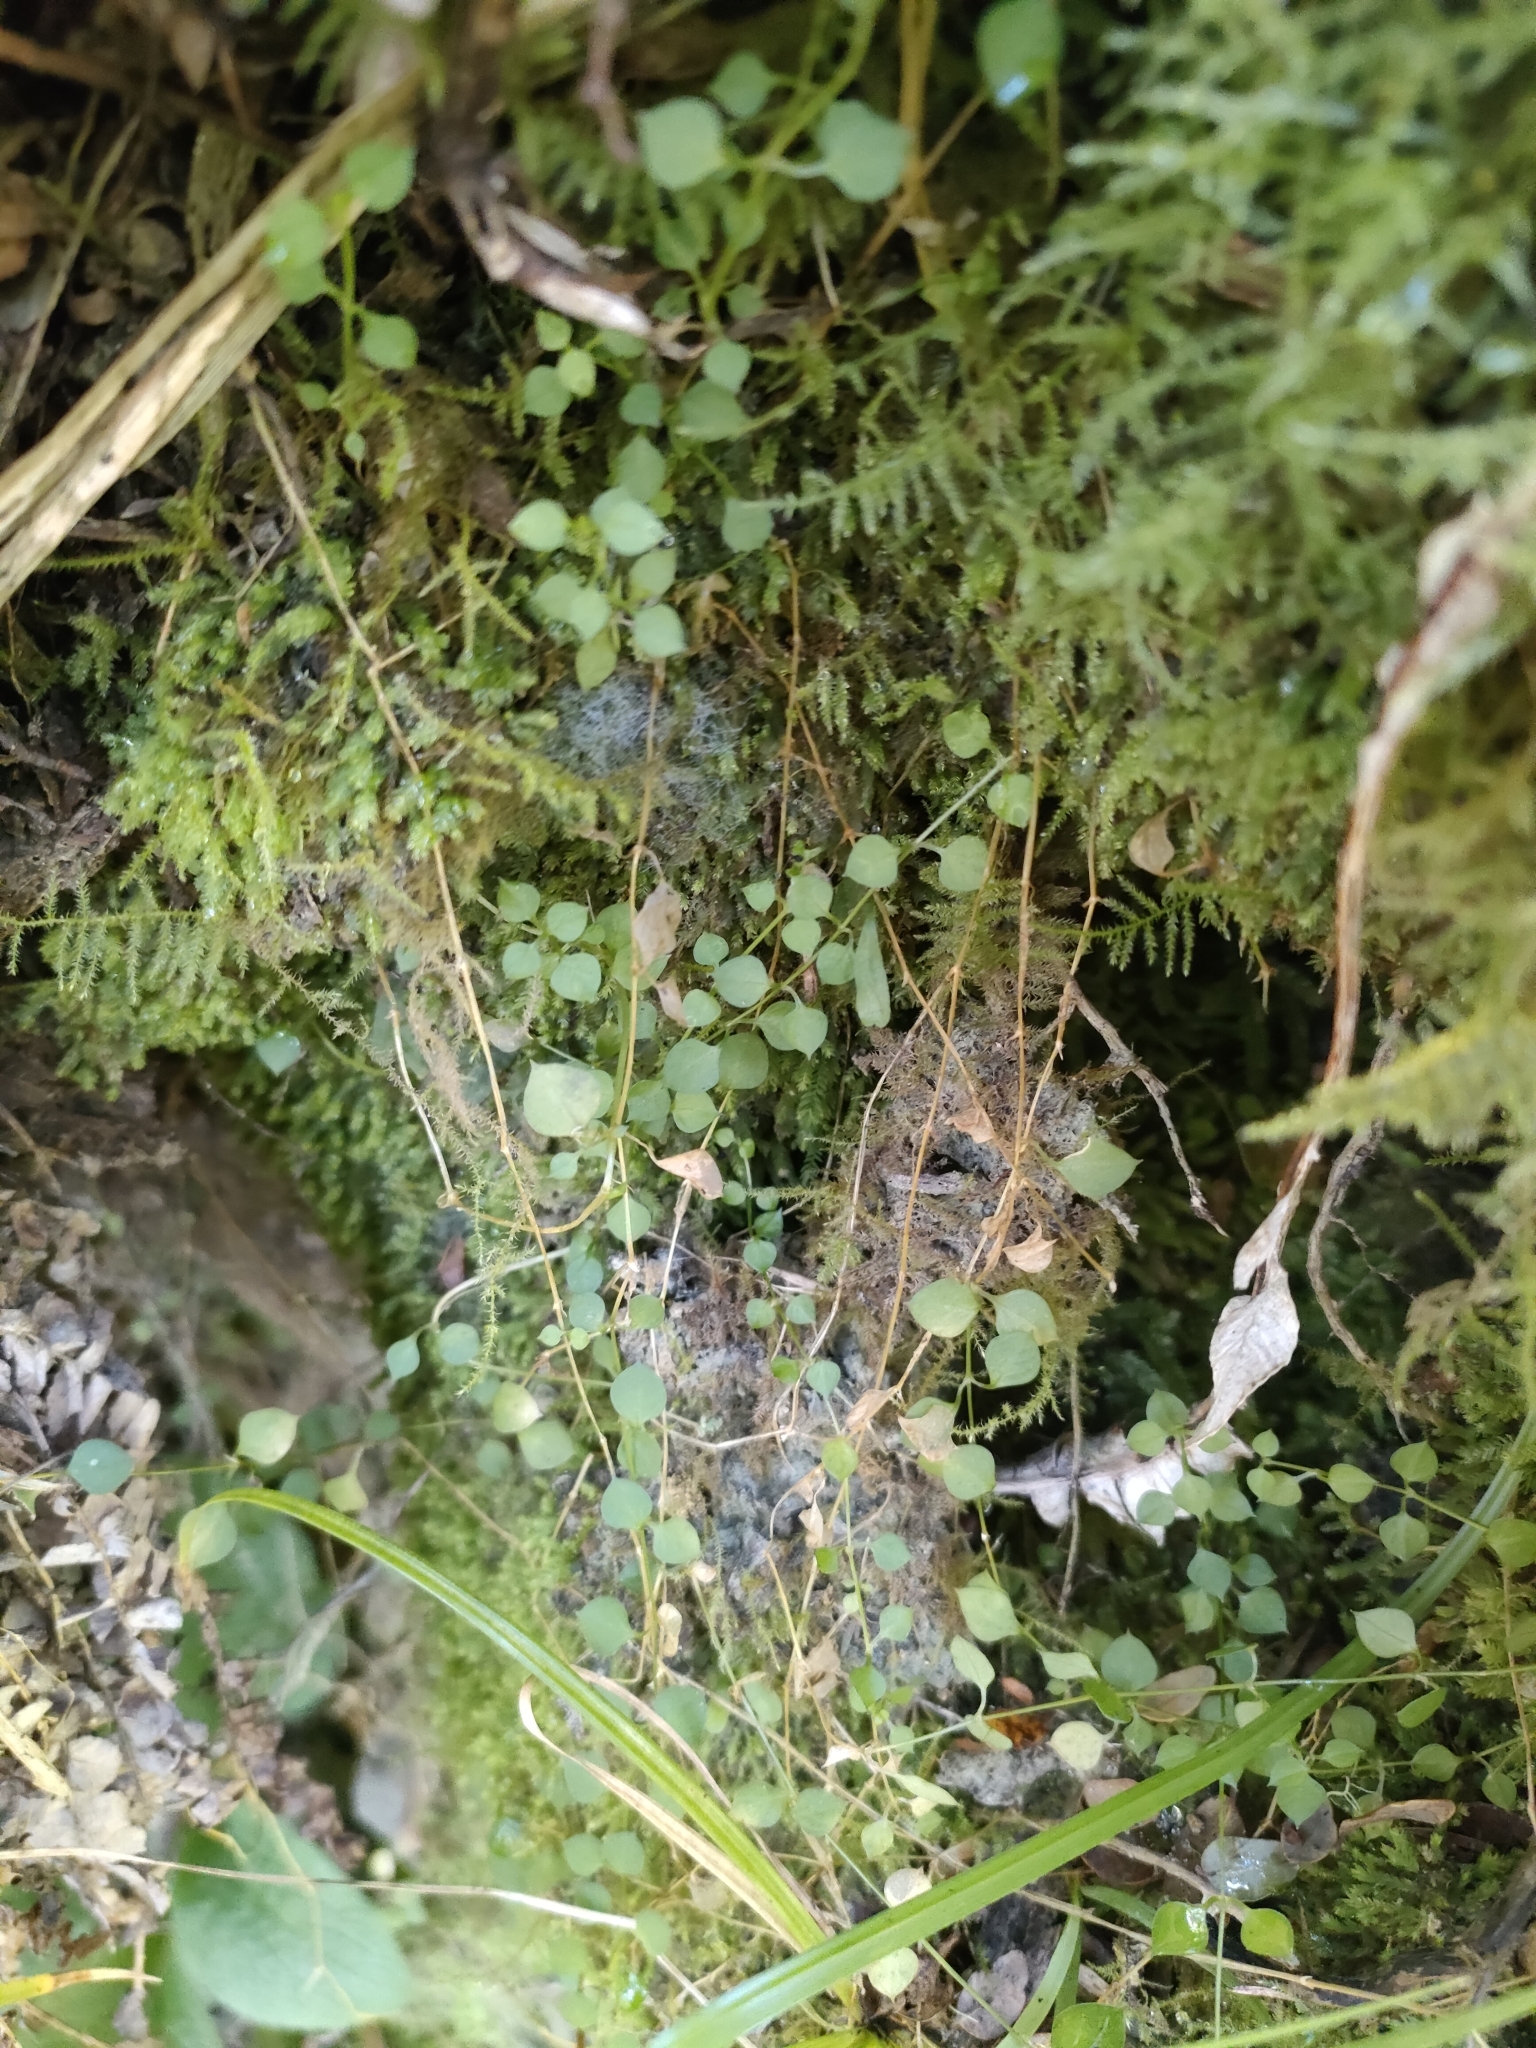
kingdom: Plantae
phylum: Tracheophyta
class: Magnoliopsida
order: Caryophyllales
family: Caryophyllaceae
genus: Stellaria
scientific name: Stellaria parviflora
